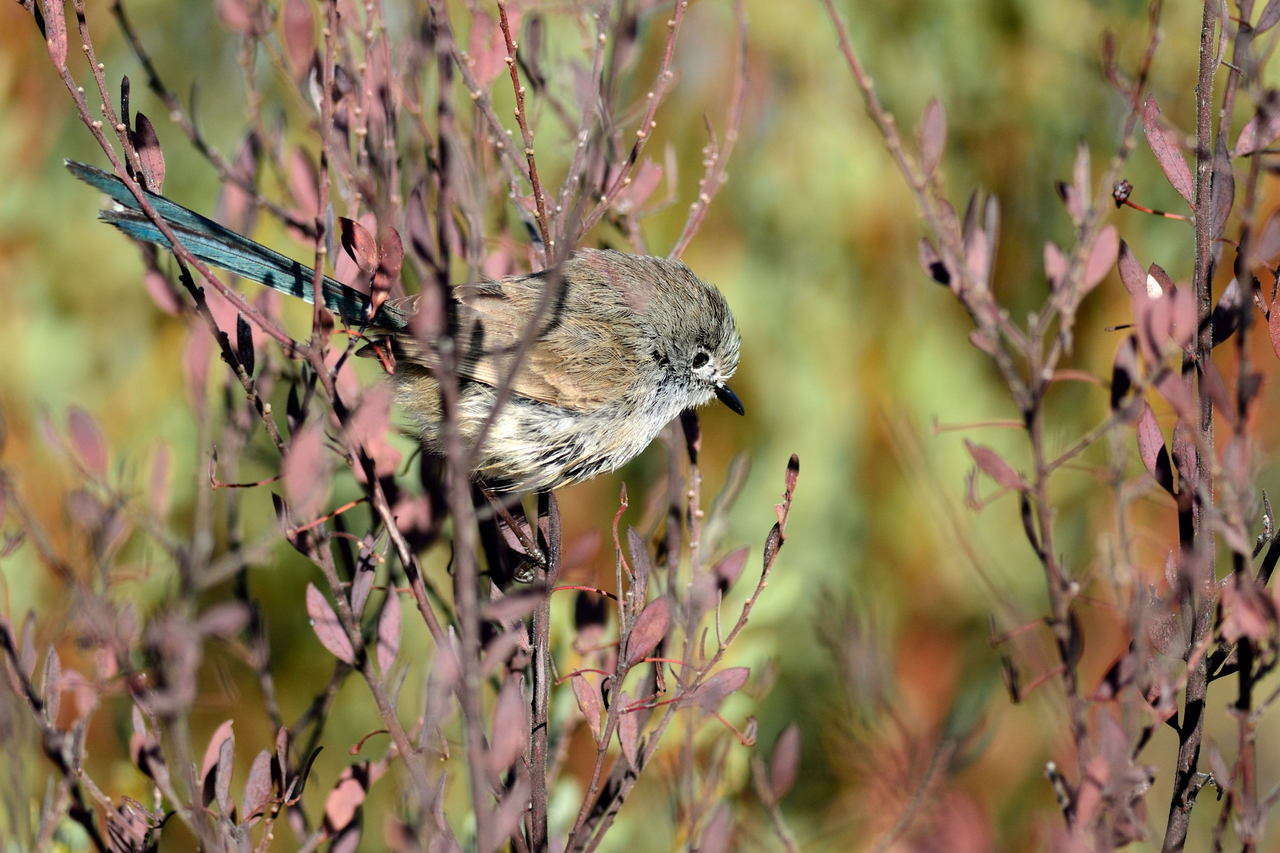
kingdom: Animalia
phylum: Chordata
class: Aves
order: Passeriformes
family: Maluridae
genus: Malurus
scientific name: Malurus splendens
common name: Splendid fairywren
